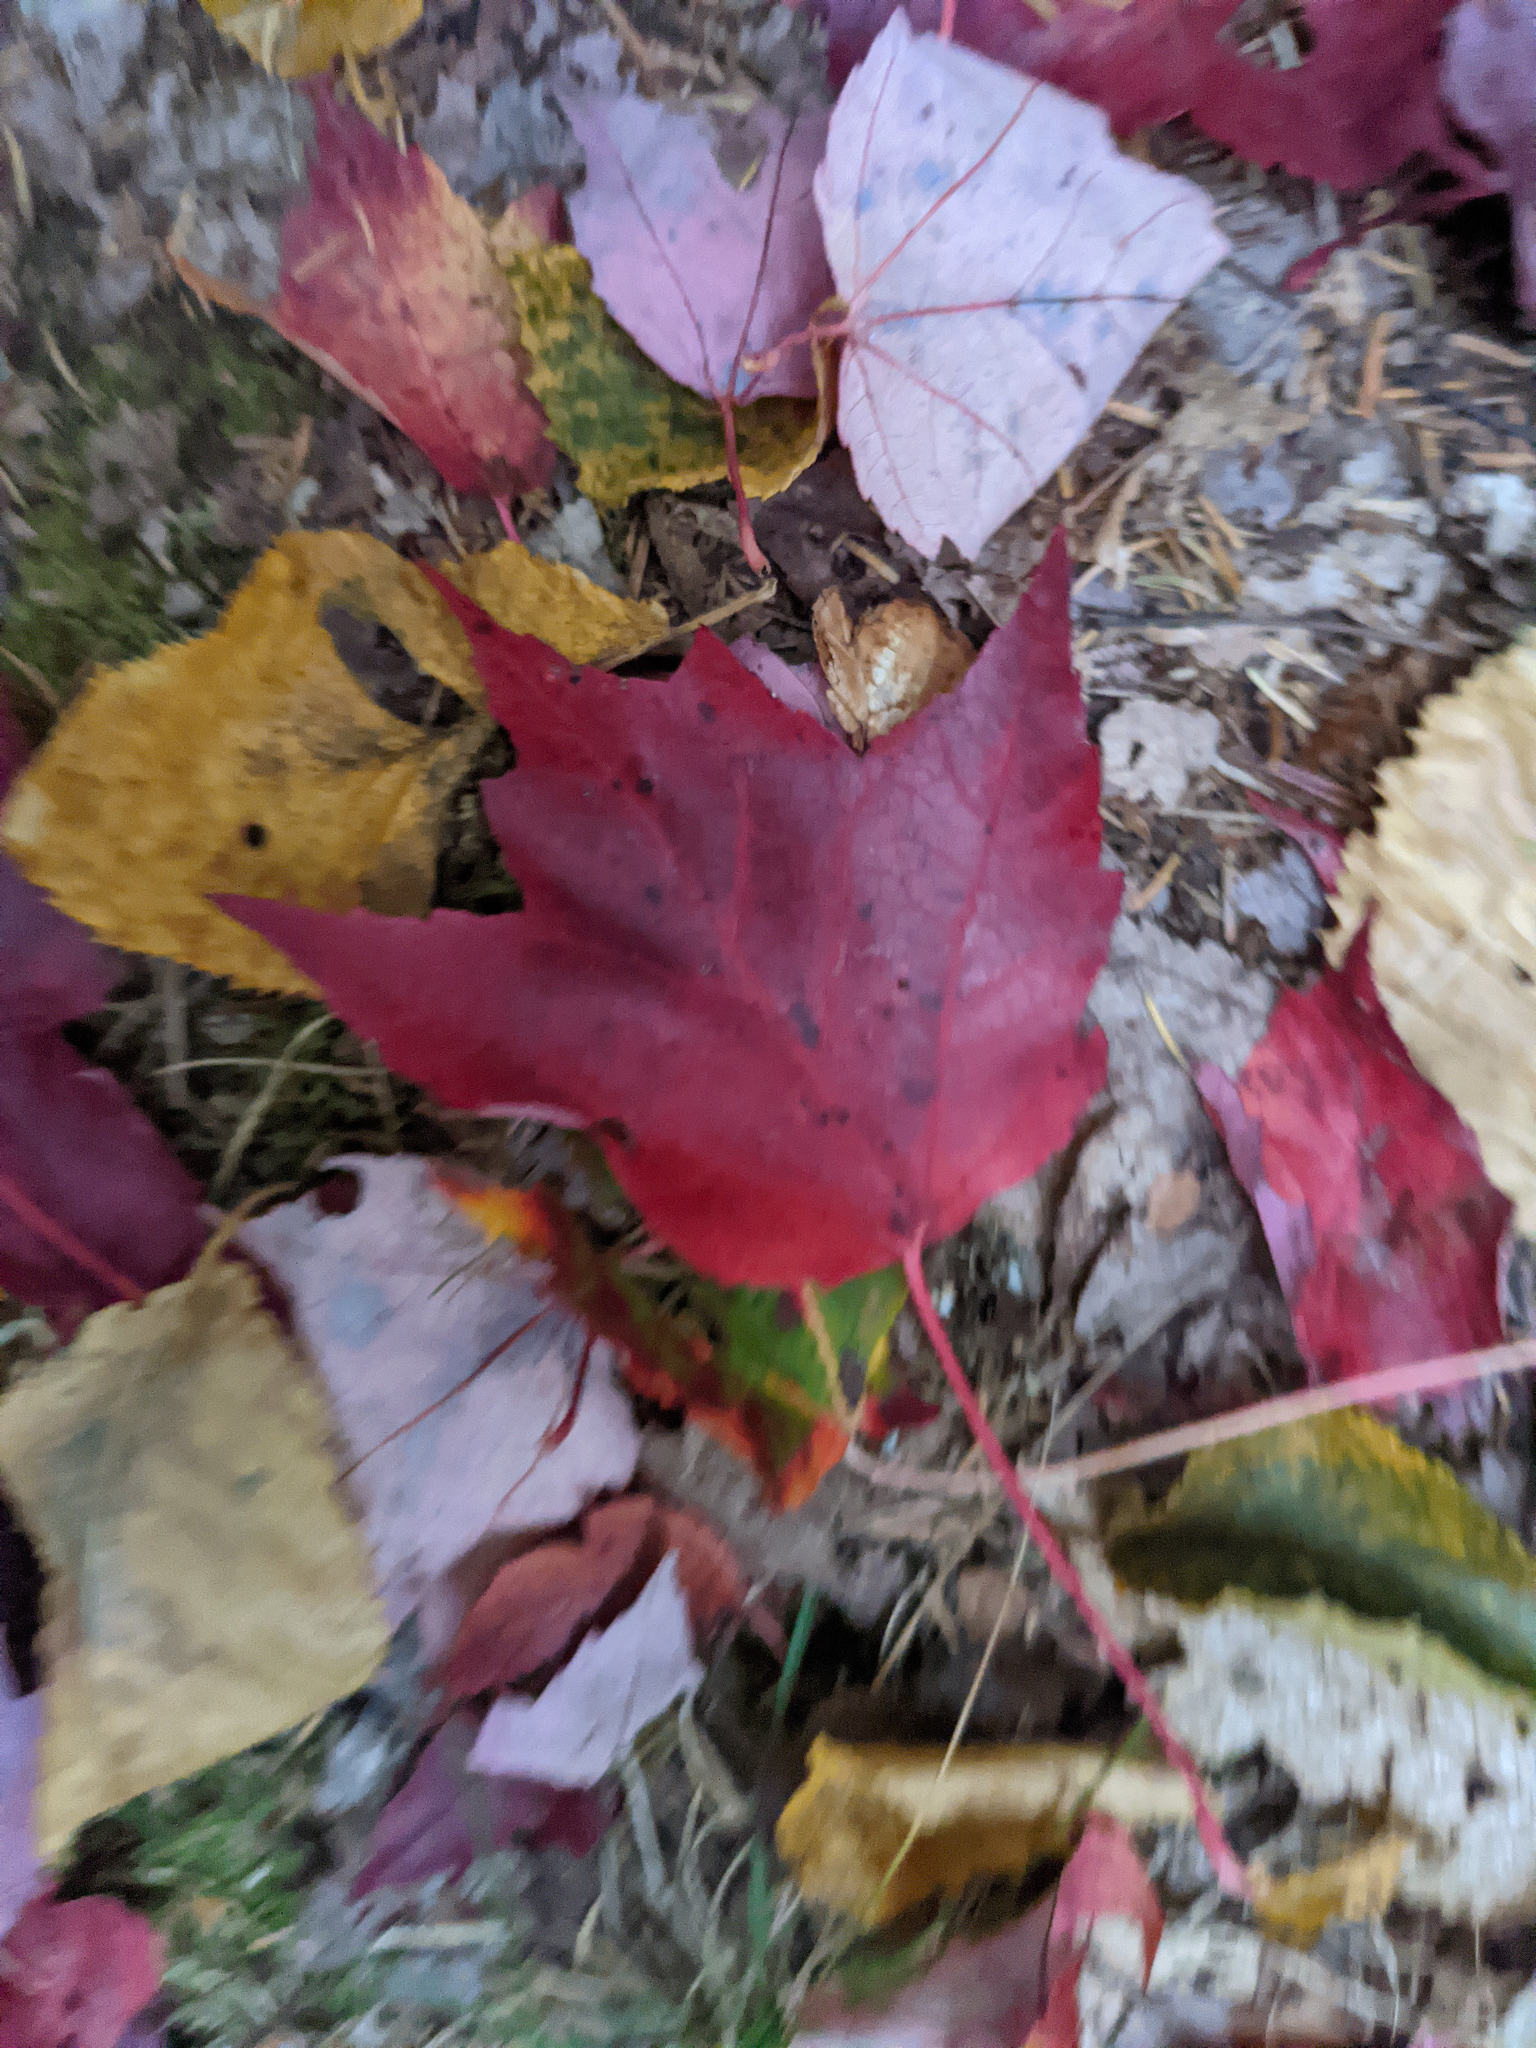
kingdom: Plantae
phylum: Tracheophyta
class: Magnoliopsida
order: Sapindales
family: Sapindaceae
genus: Acer
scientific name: Acer rubrum
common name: Red maple
